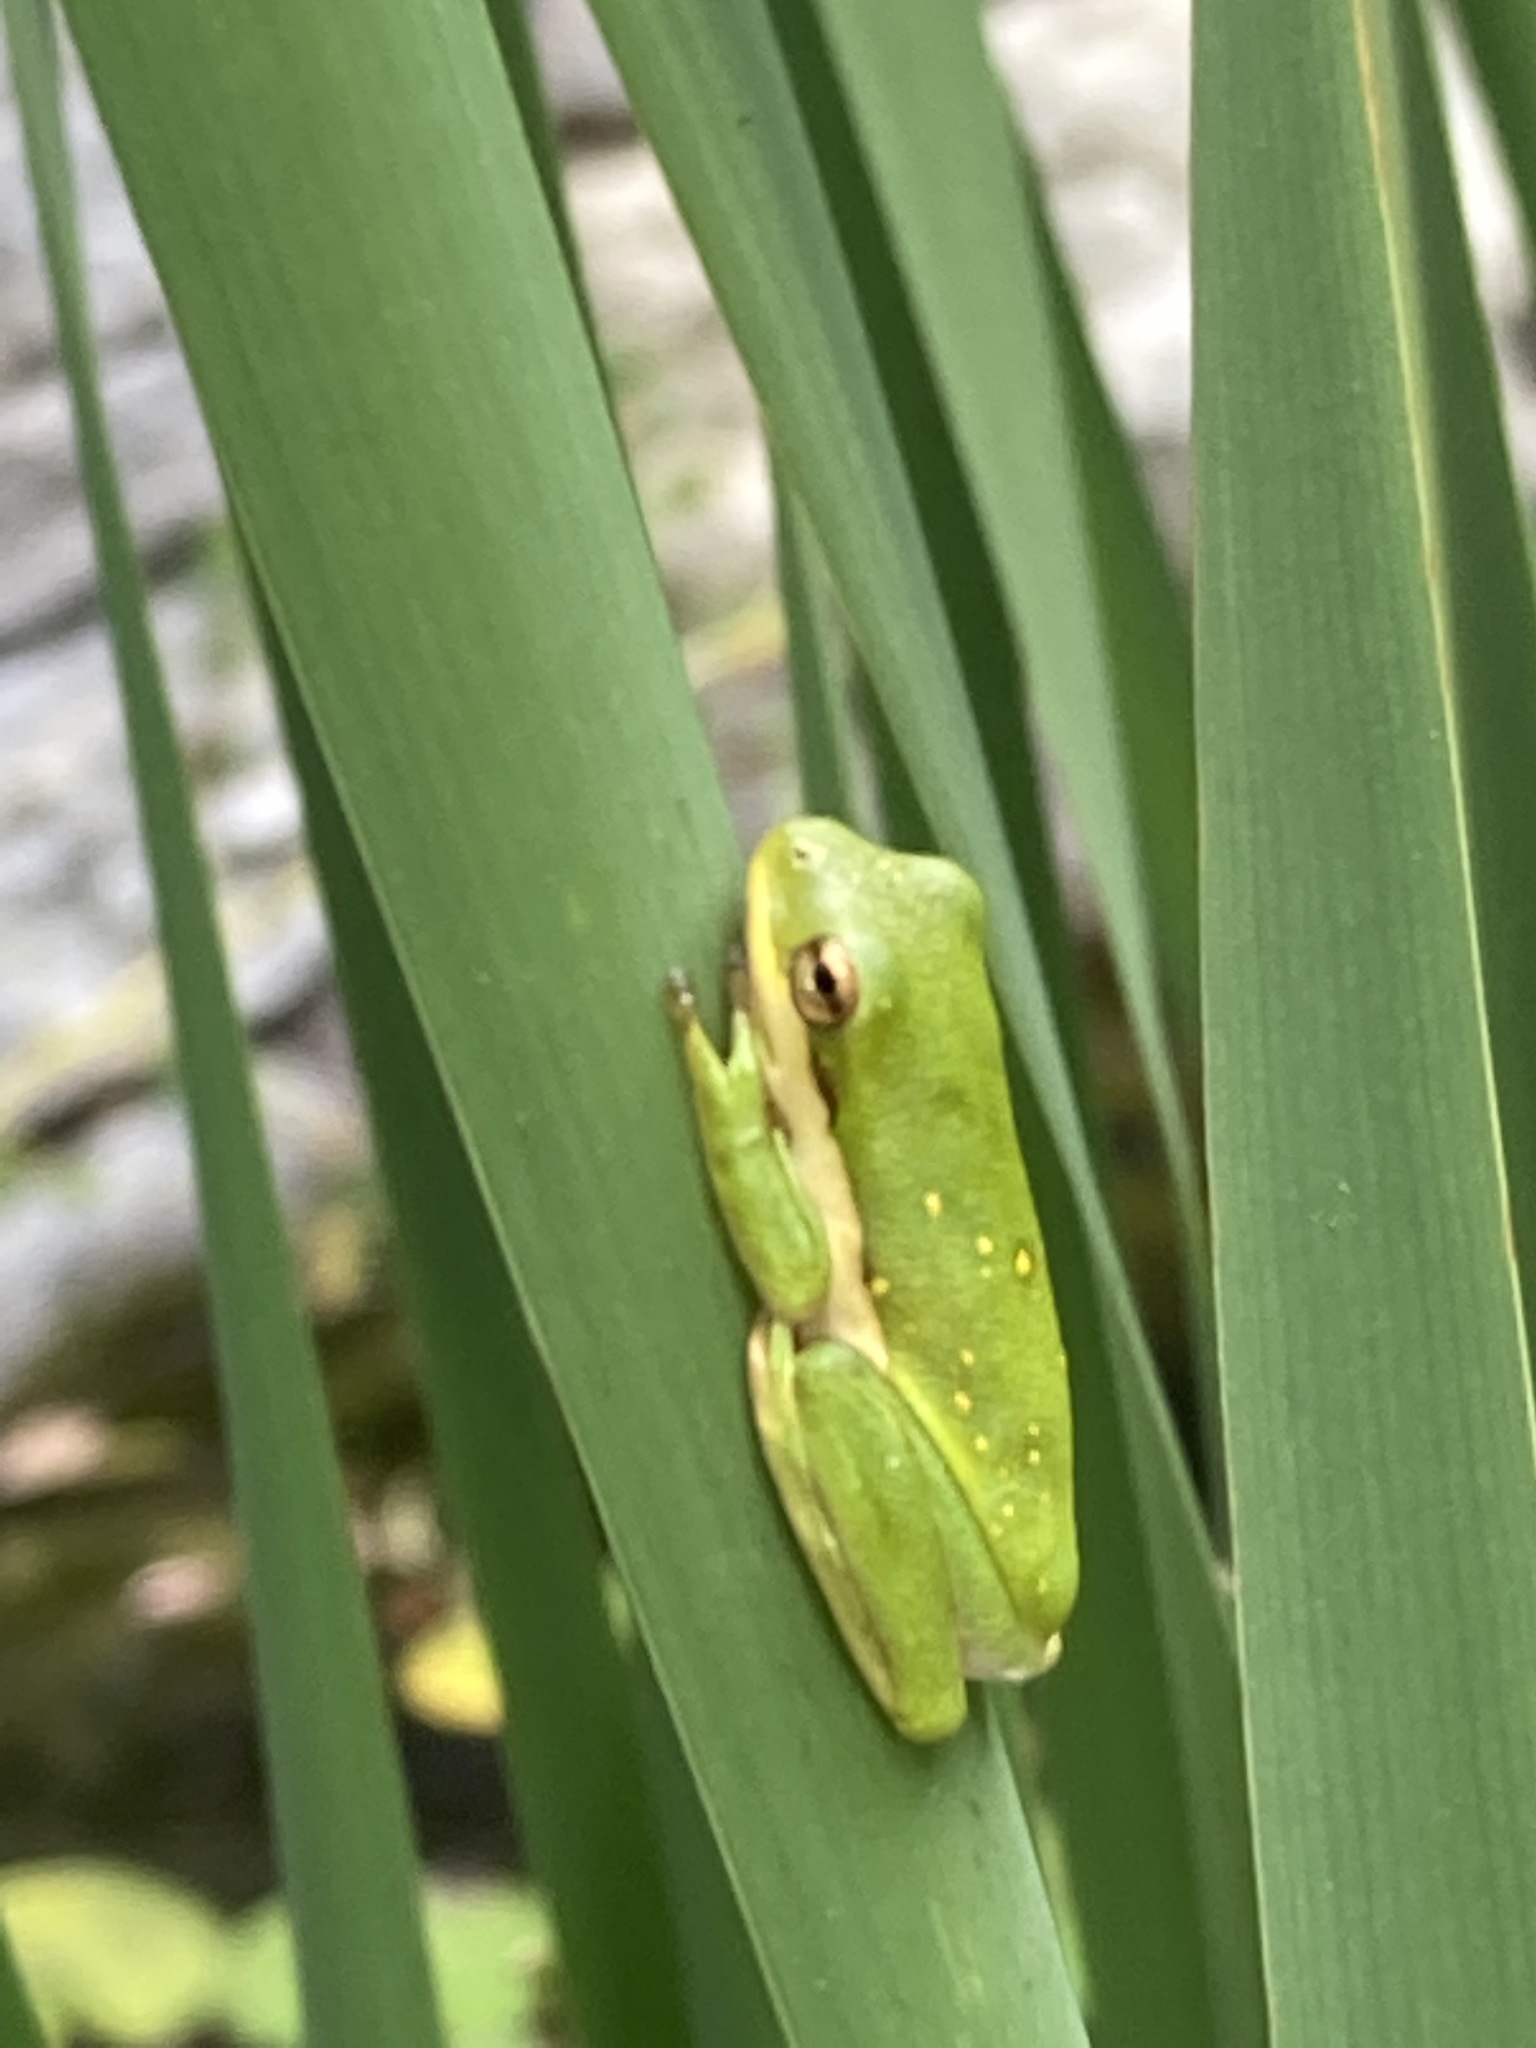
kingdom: Animalia
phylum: Chordata
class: Amphibia
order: Anura
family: Hylidae
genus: Dryophytes
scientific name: Dryophytes cinereus
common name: Green treefrog
